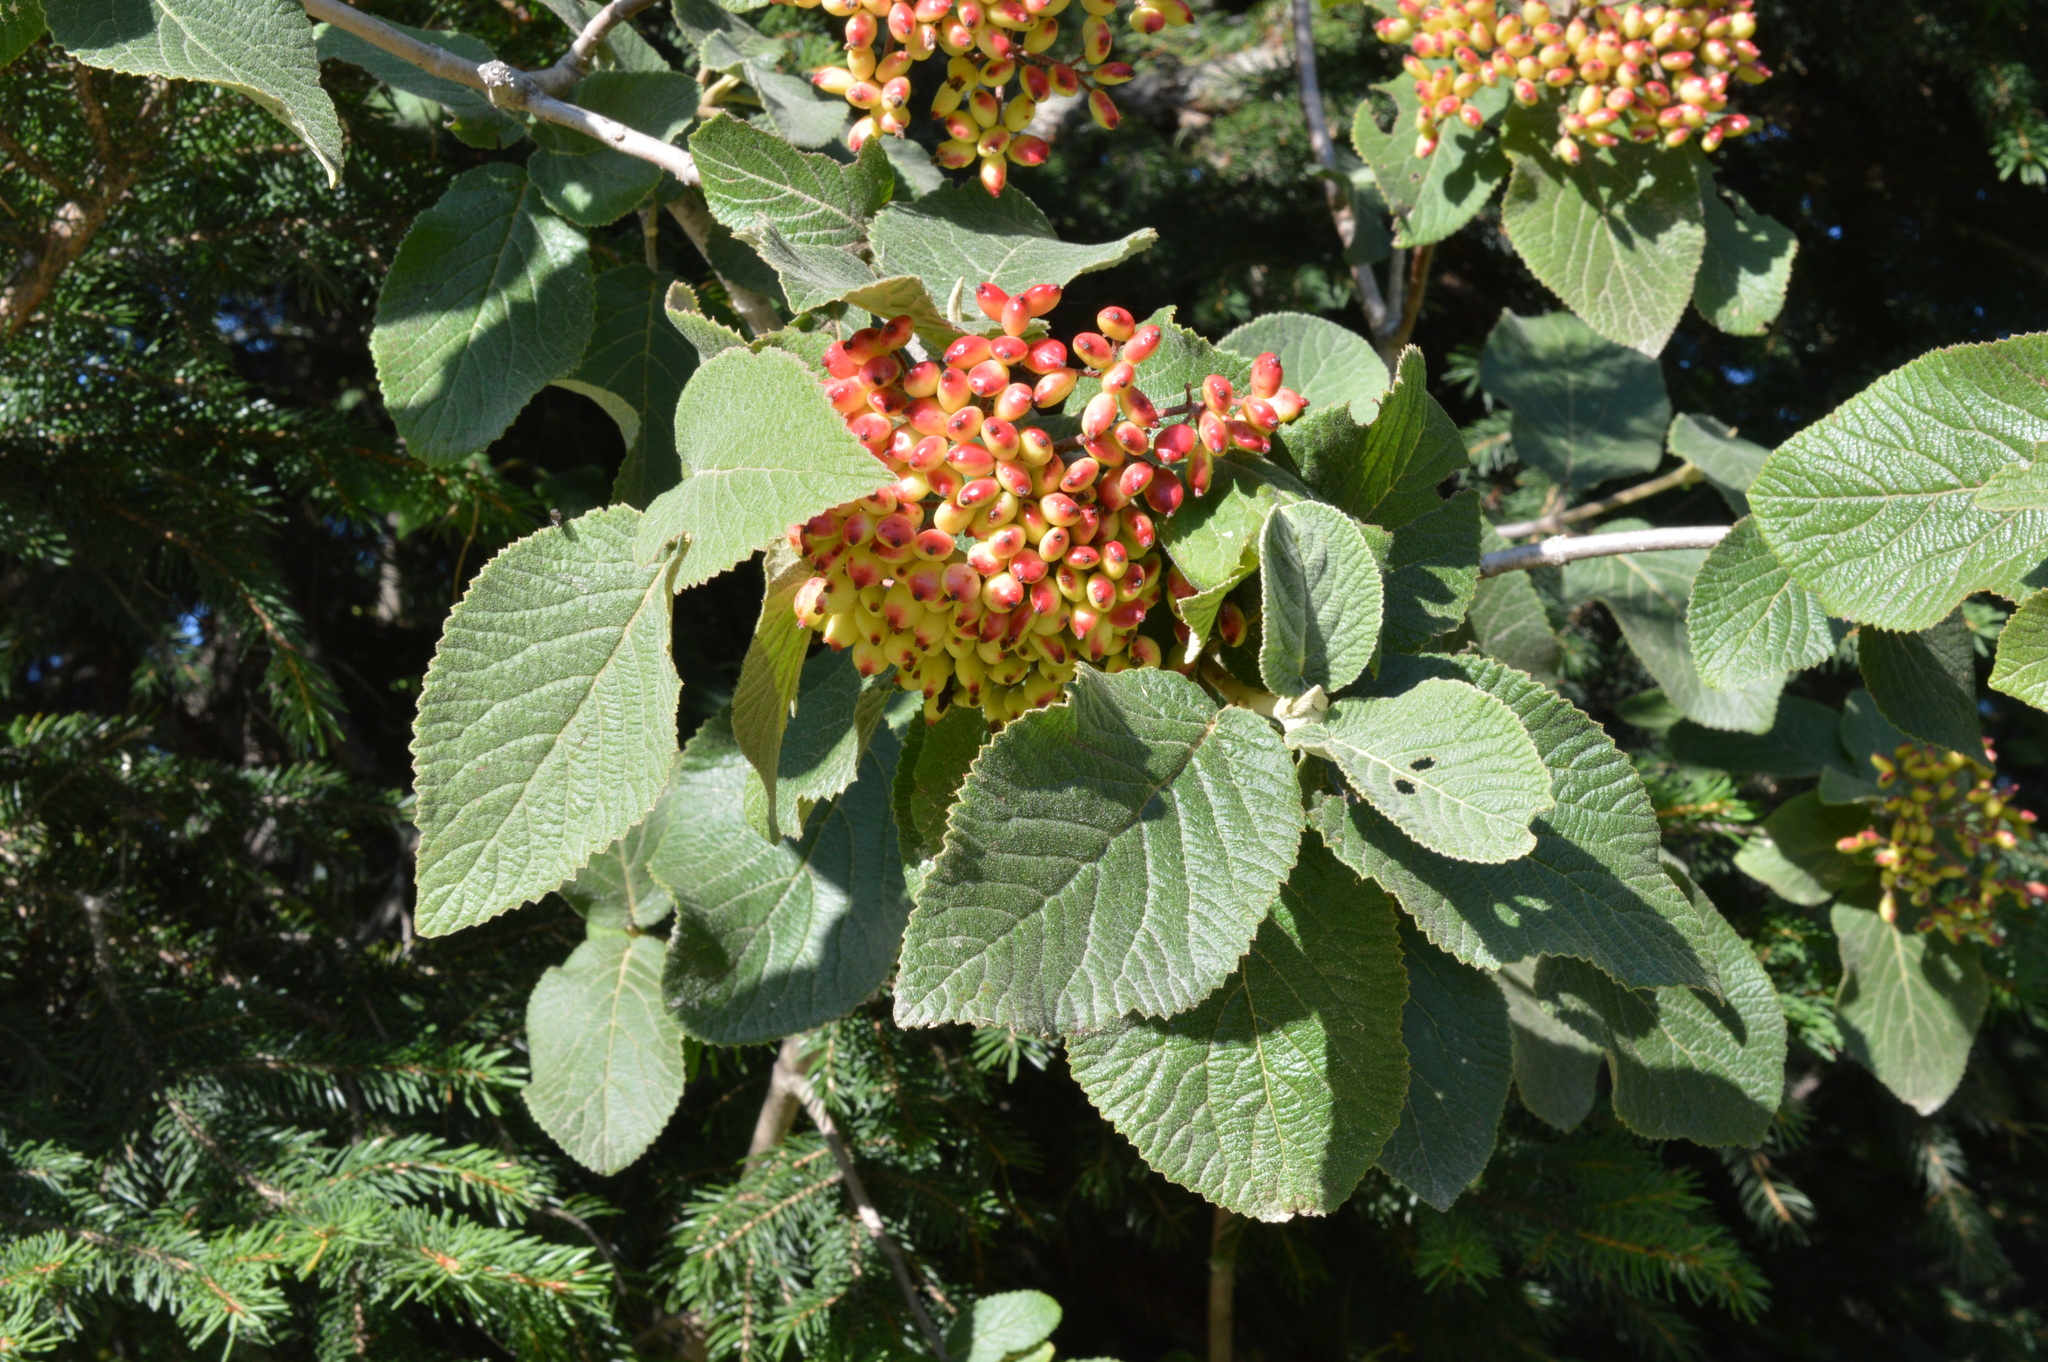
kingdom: Plantae
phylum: Tracheophyta
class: Magnoliopsida
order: Dipsacales
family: Viburnaceae
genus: Viburnum
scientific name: Viburnum lantana
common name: Wayfaring tree
